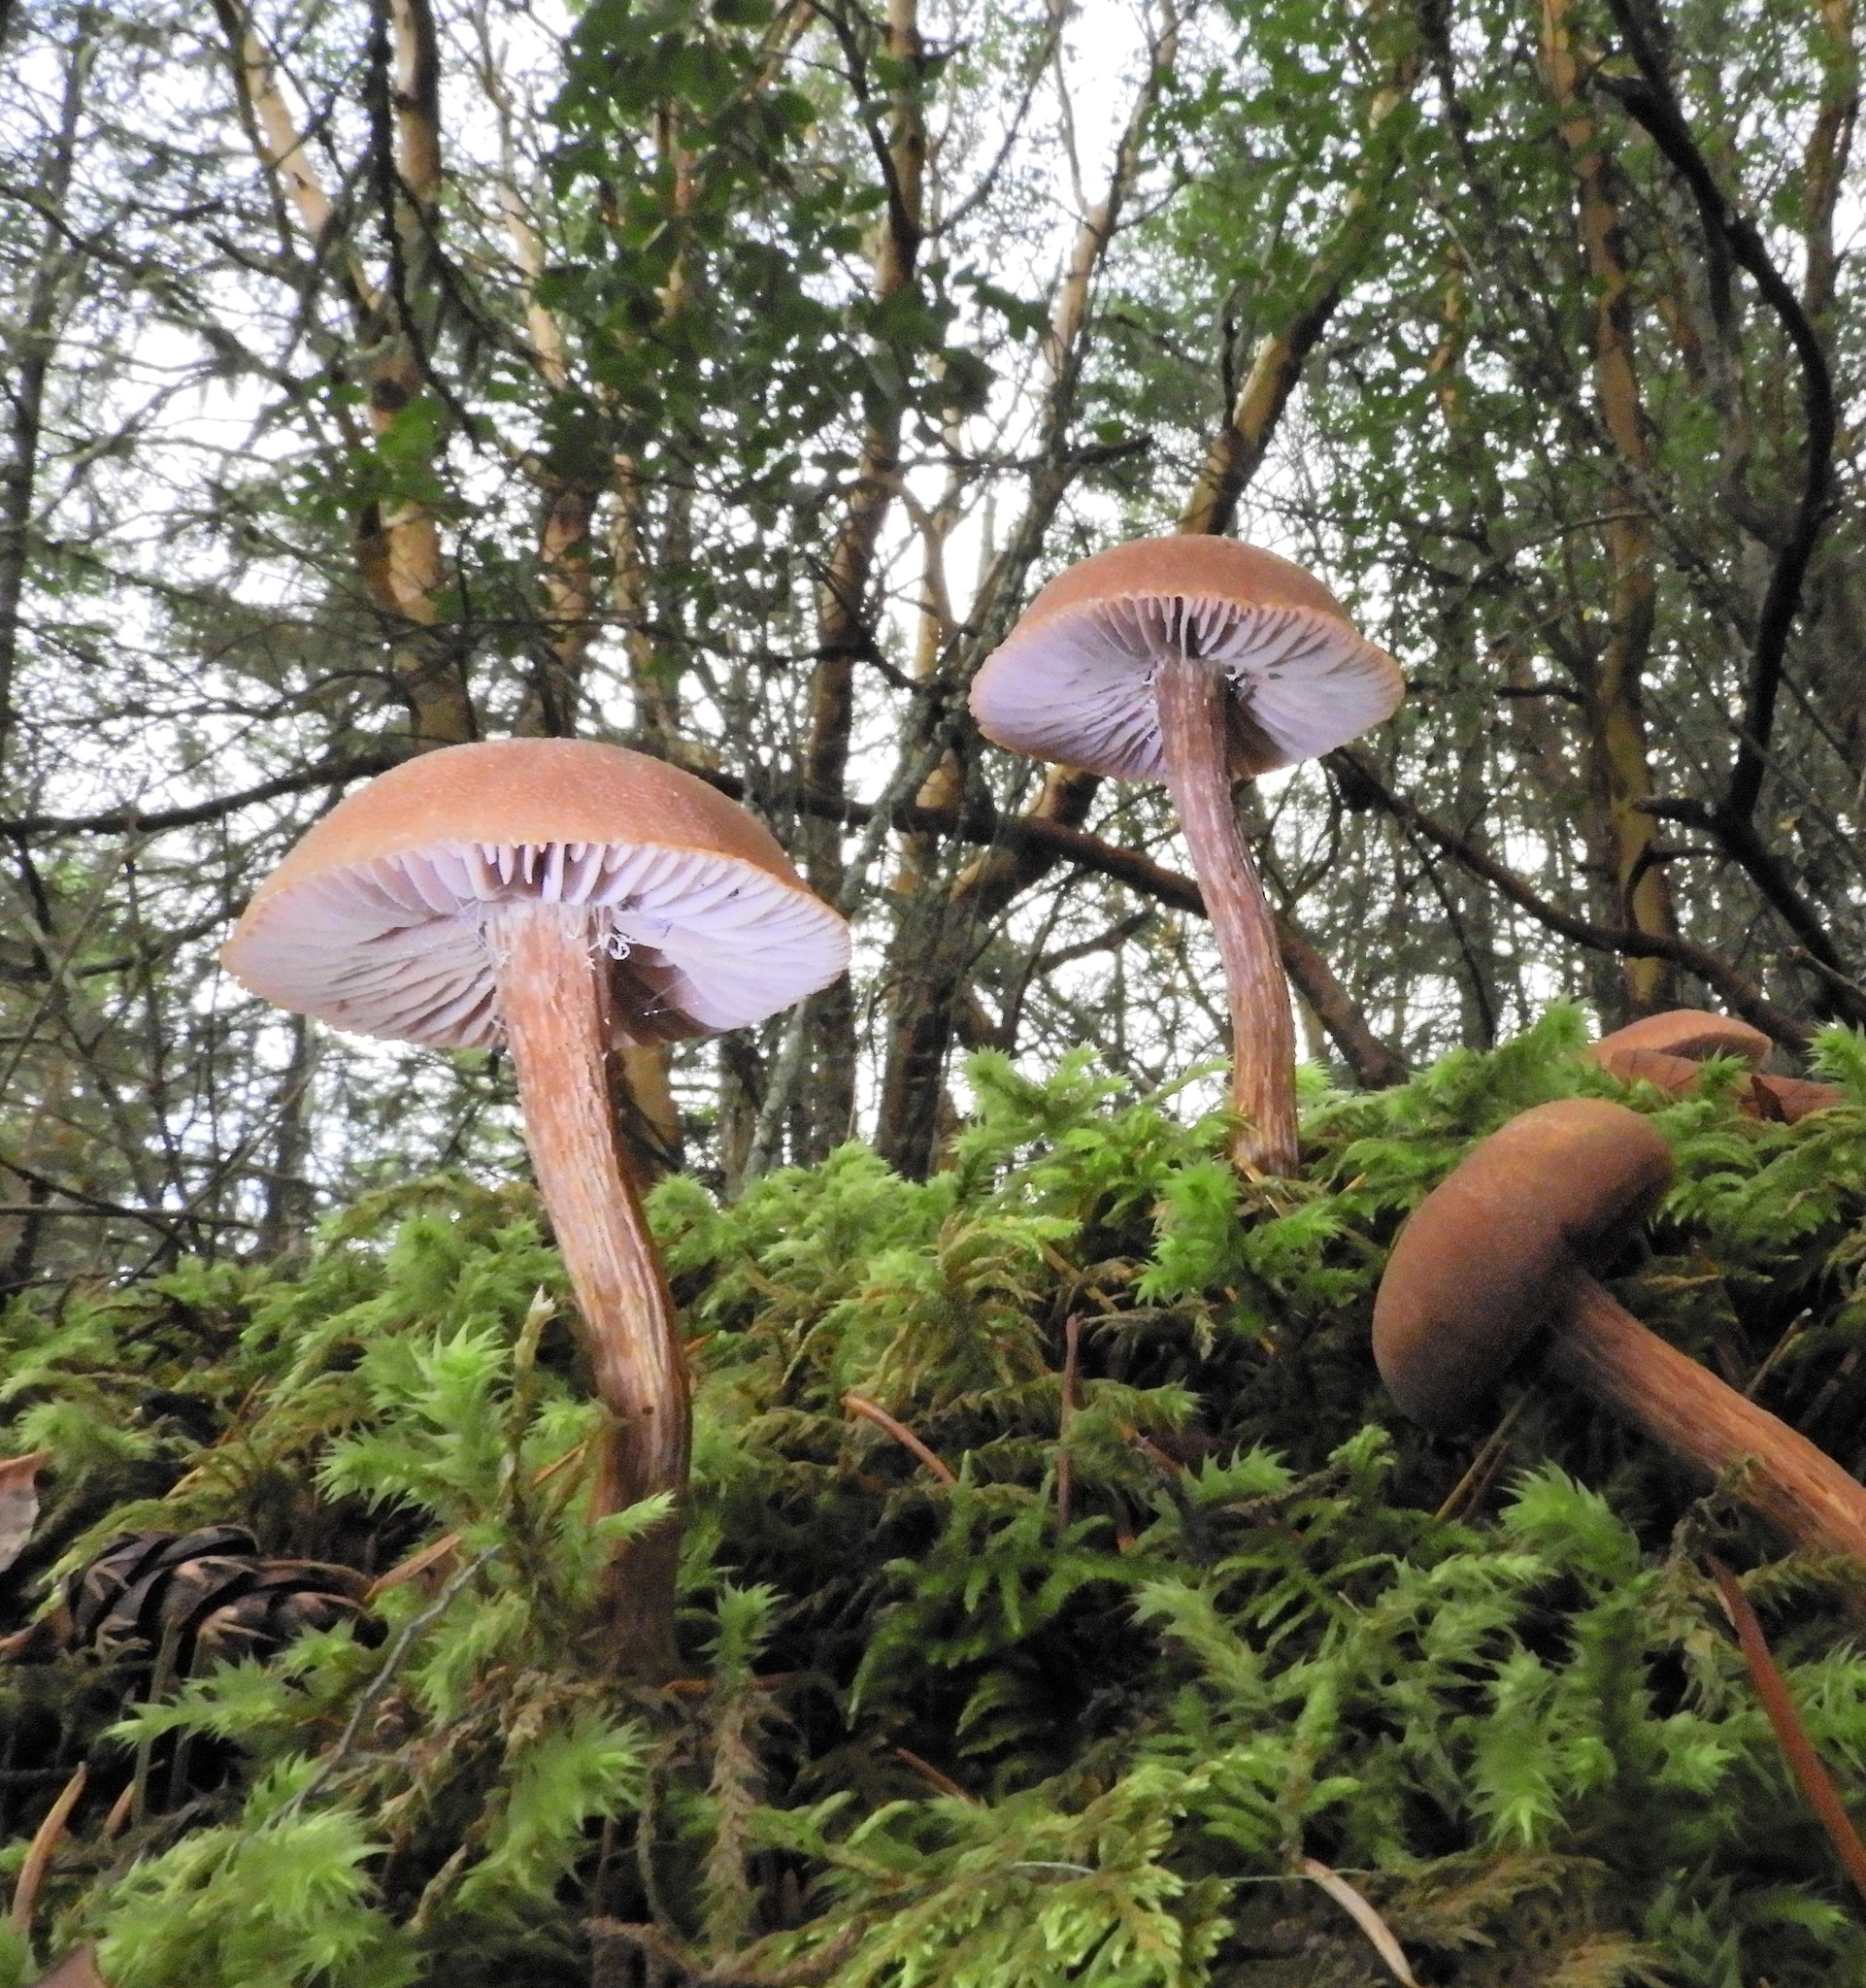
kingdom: Fungi
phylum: Basidiomycota
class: Agaricomycetes
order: Agaricales
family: Hydnangiaceae
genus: Laccaria
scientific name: Laccaria bicolor
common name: Bicoloured deceiver
